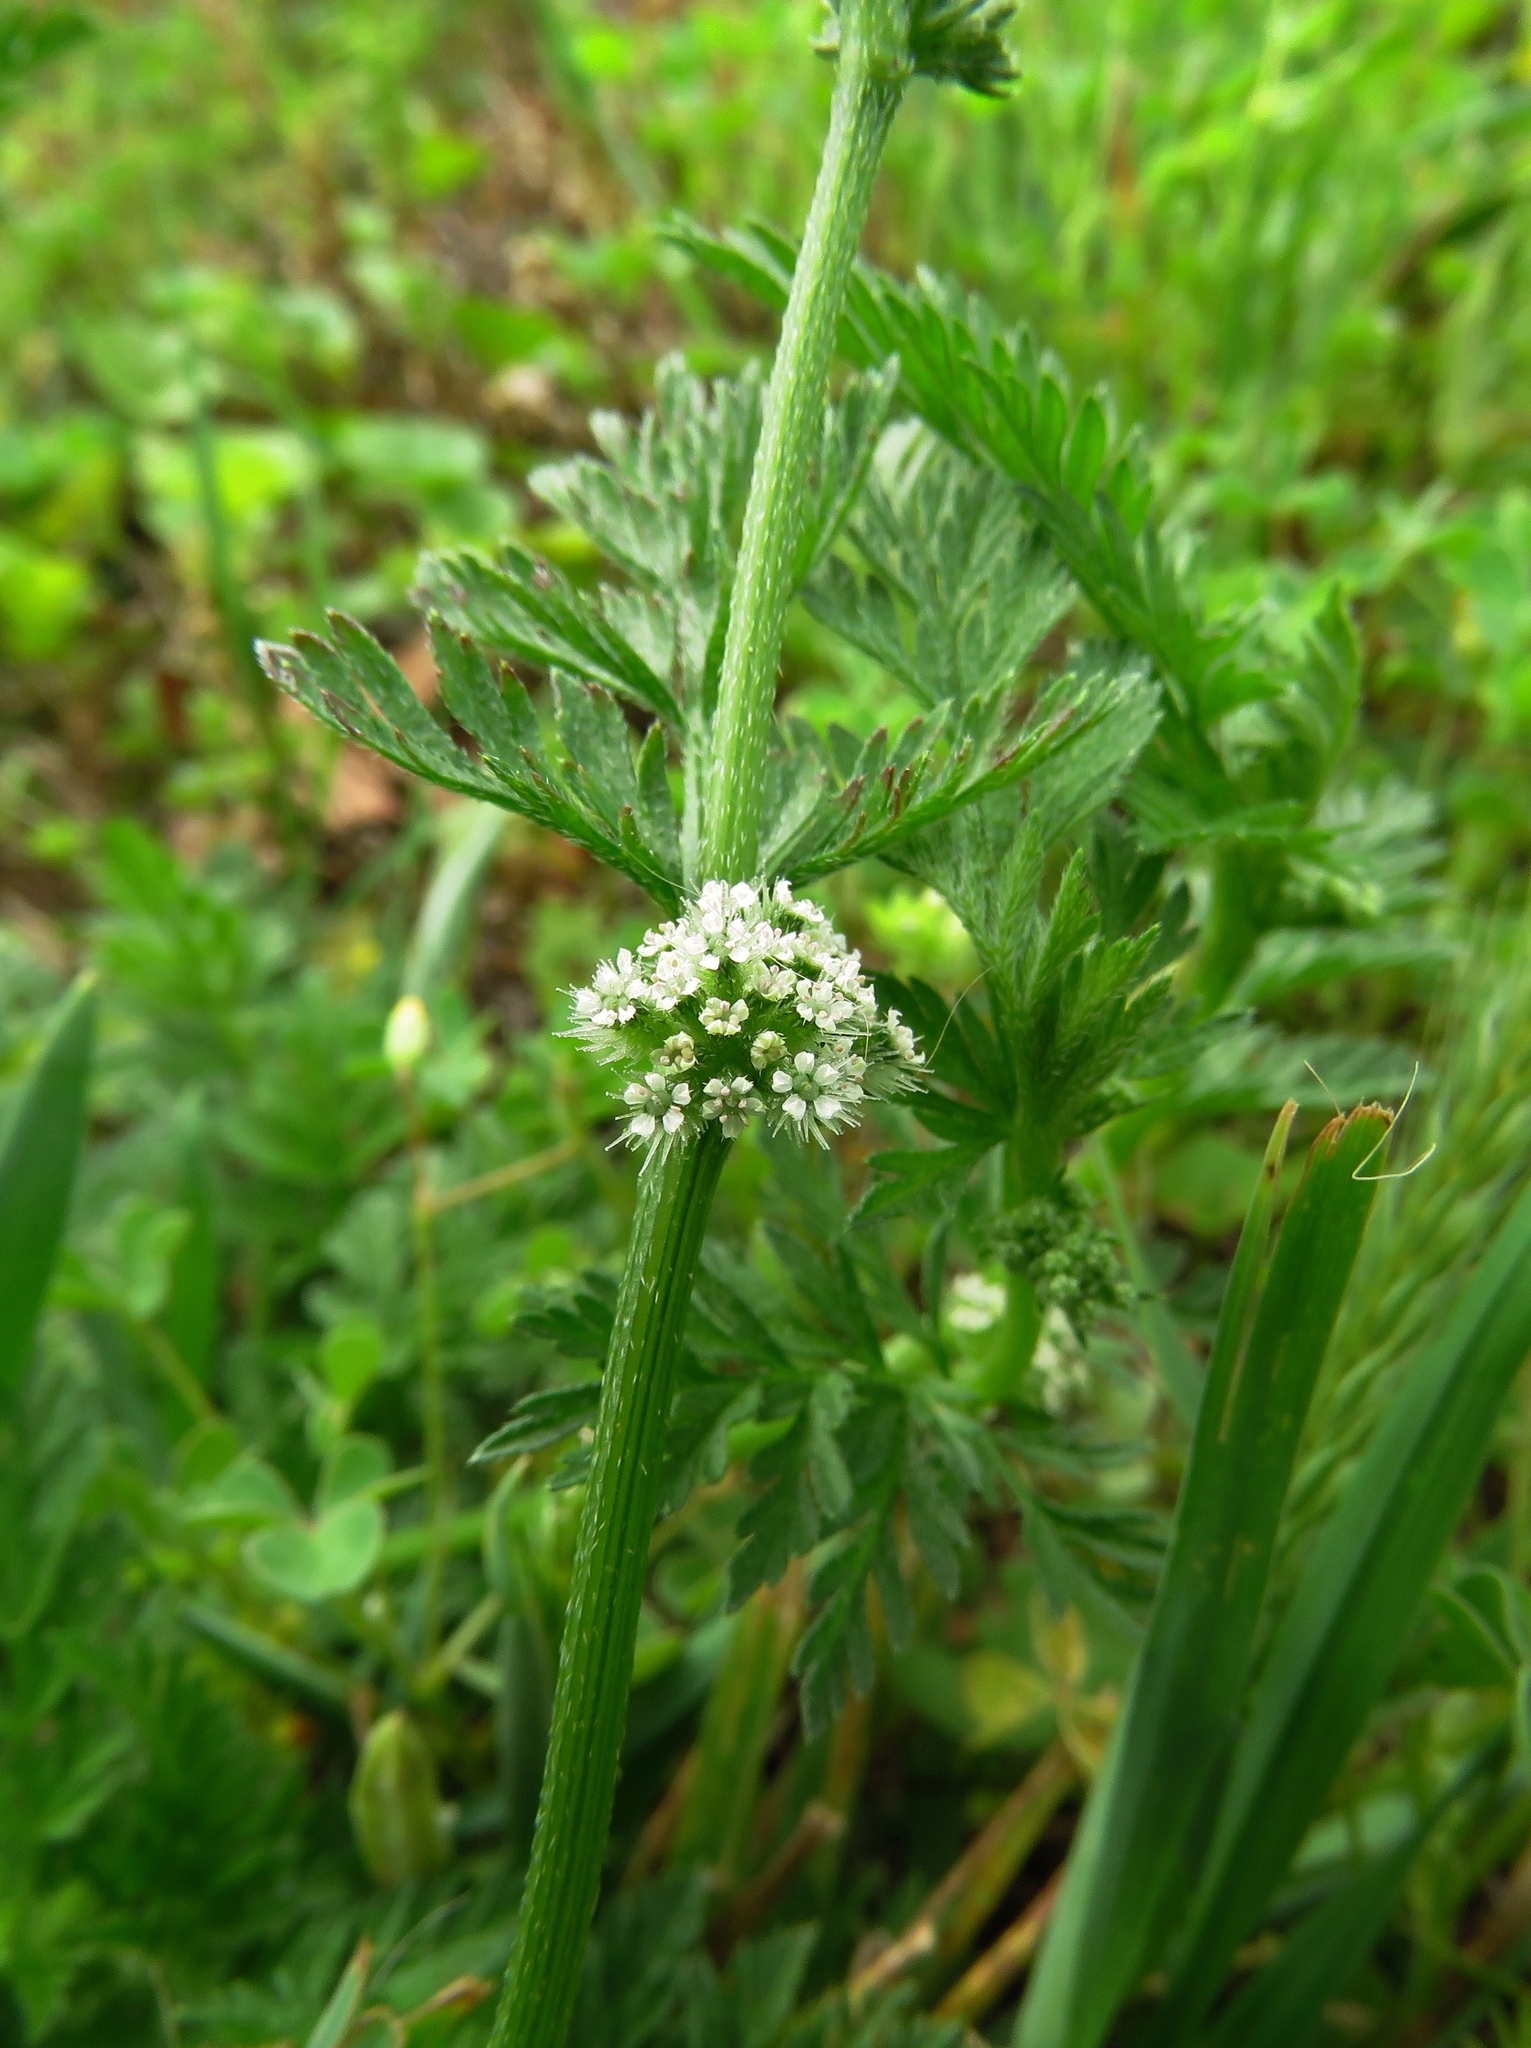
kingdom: Plantae
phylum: Tracheophyta
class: Magnoliopsida
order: Apiales
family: Apiaceae
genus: Torilis
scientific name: Torilis nodosa
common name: Knotted hedge-parsley
